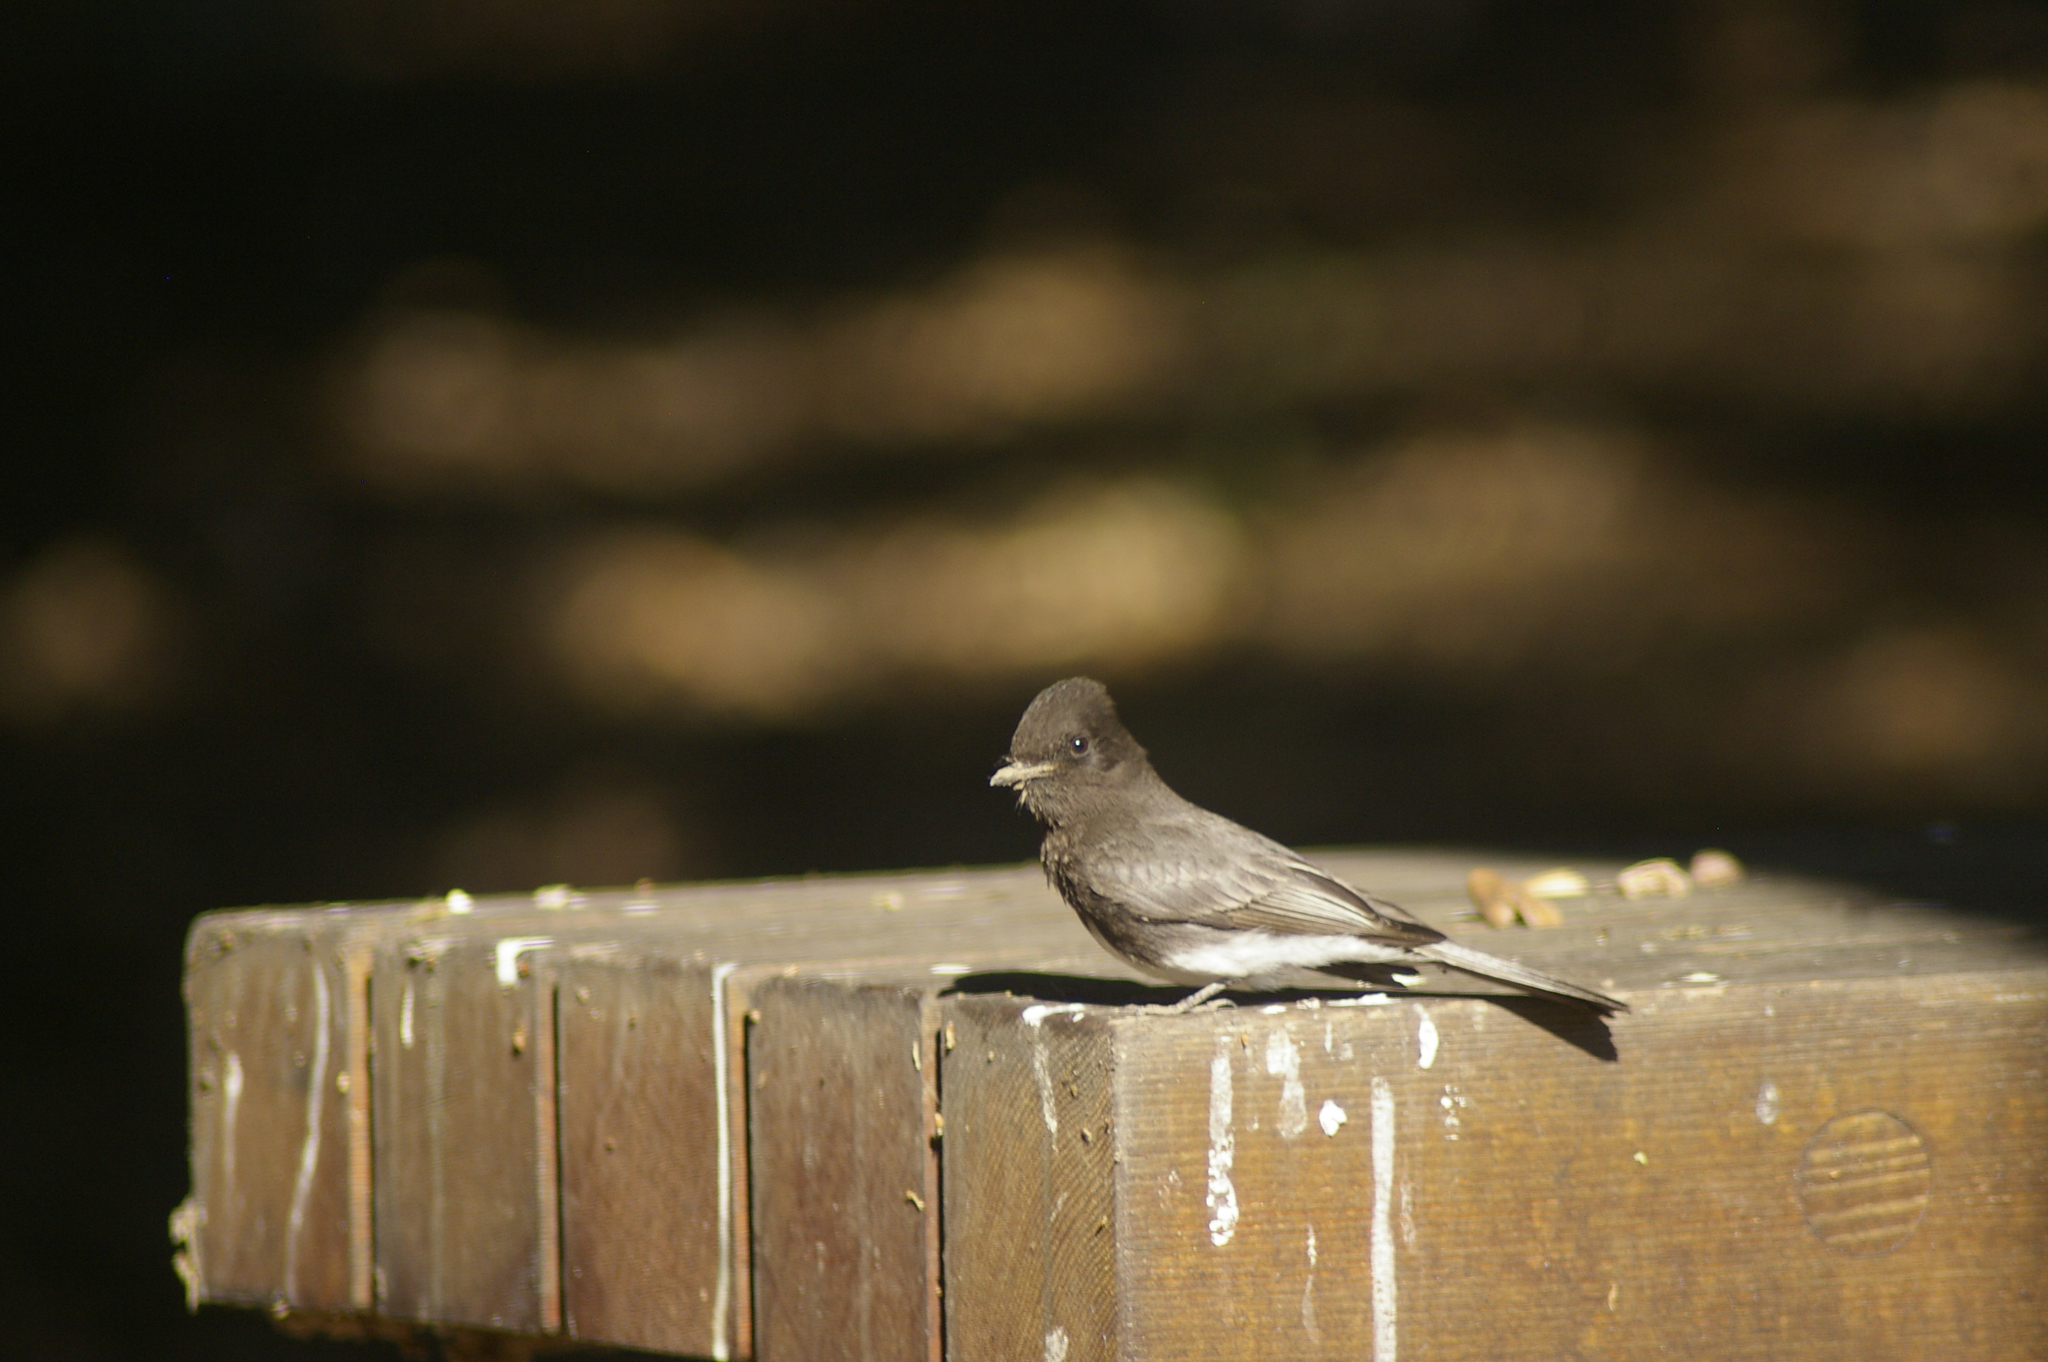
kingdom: Animalia
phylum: Chordata
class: Aves
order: Passeriformes
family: Tyrannidae
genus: Sayornis
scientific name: Sayornis nigricans
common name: Black phoebe
